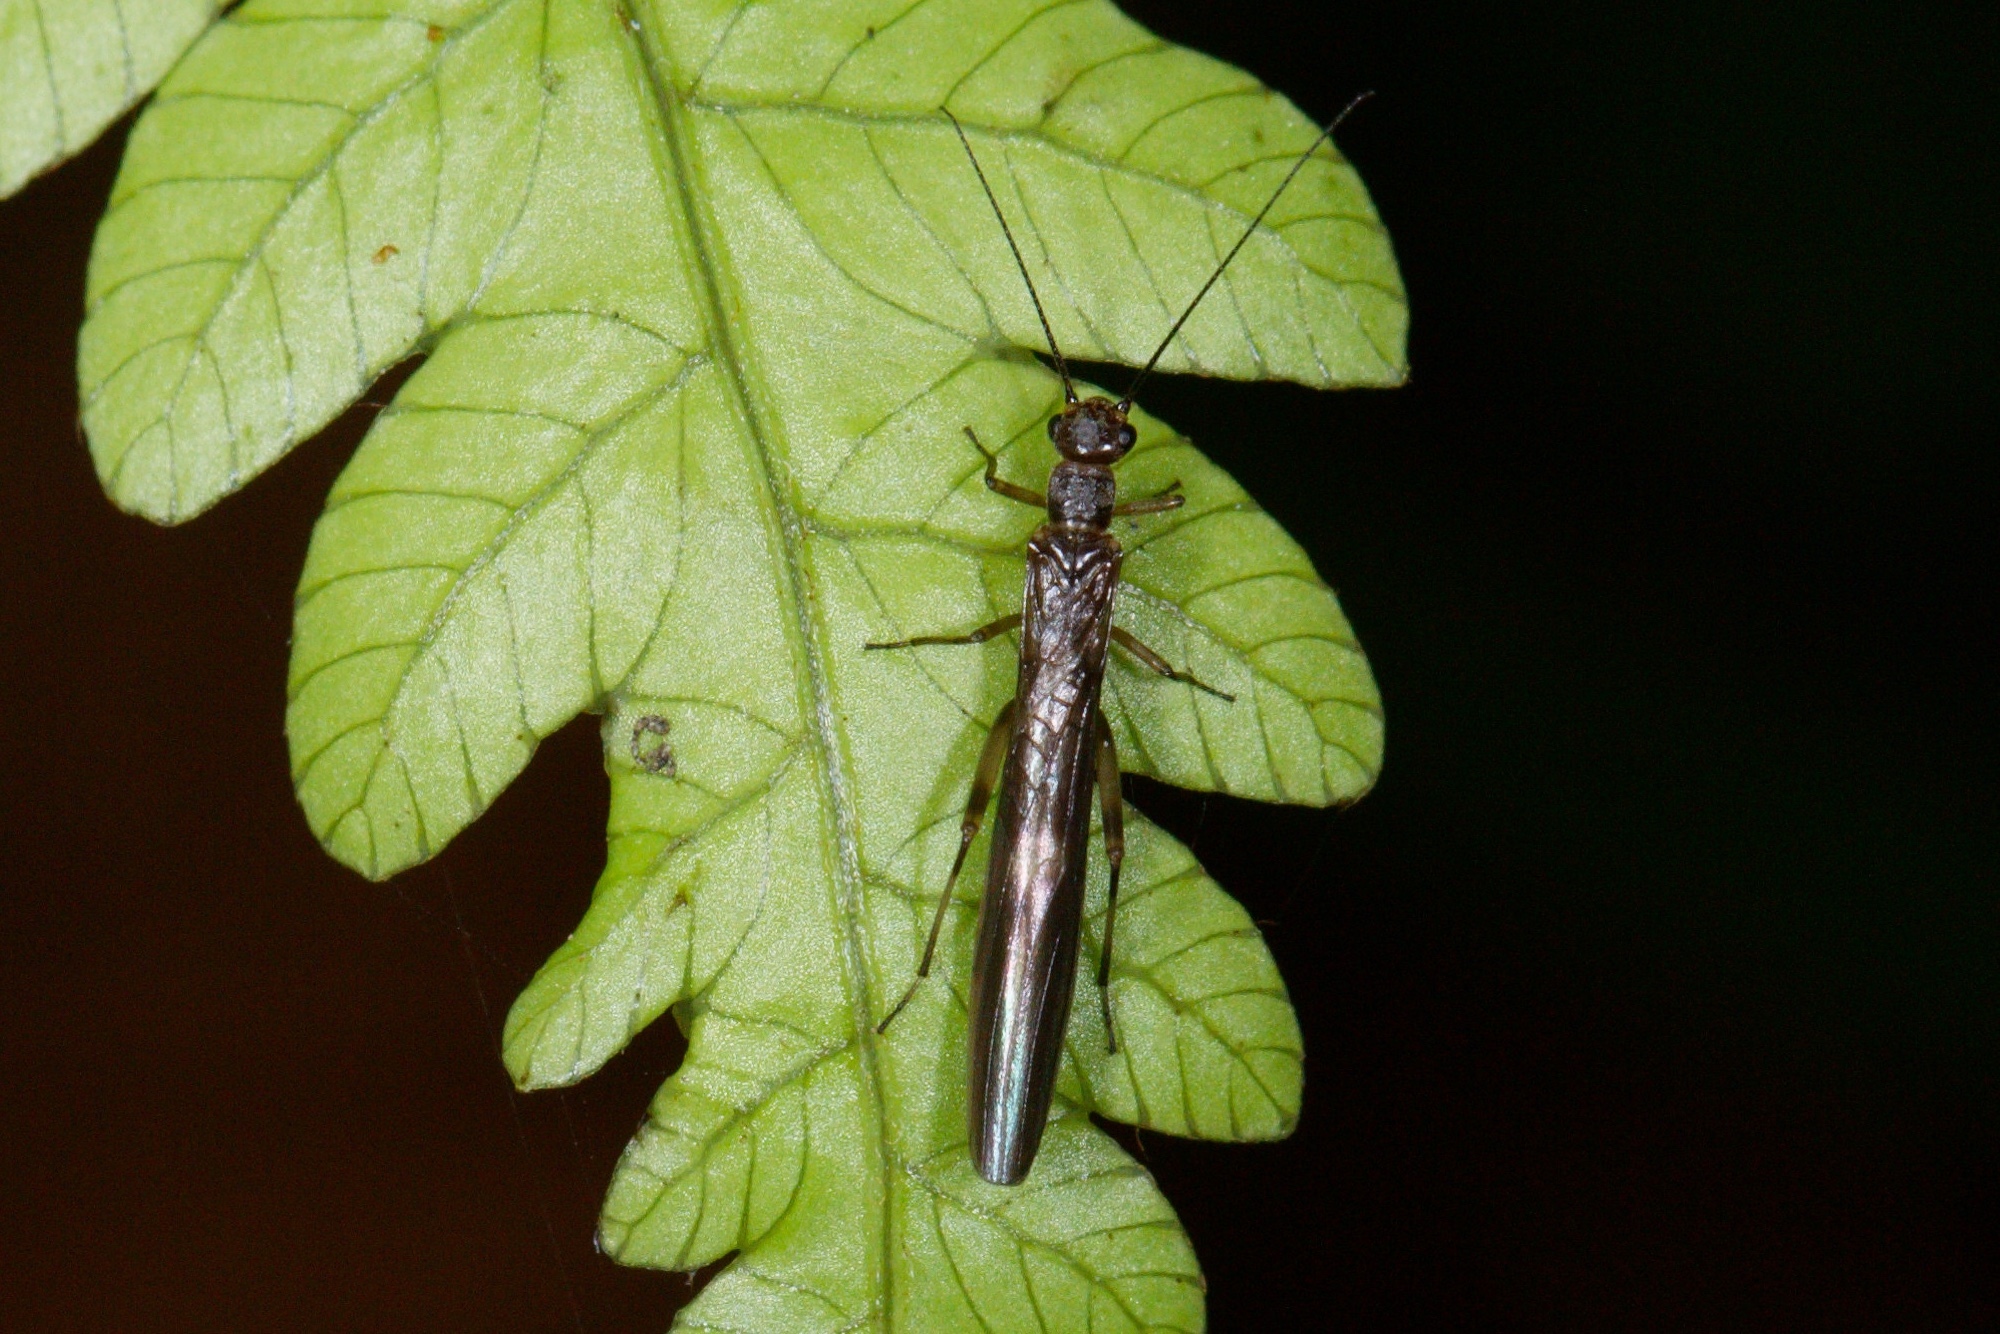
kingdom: Animalia
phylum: Arthropoda
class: Insecta
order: Plecoptera
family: Gripopterygidae
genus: Acroperla
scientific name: Acroperla trivacuata
